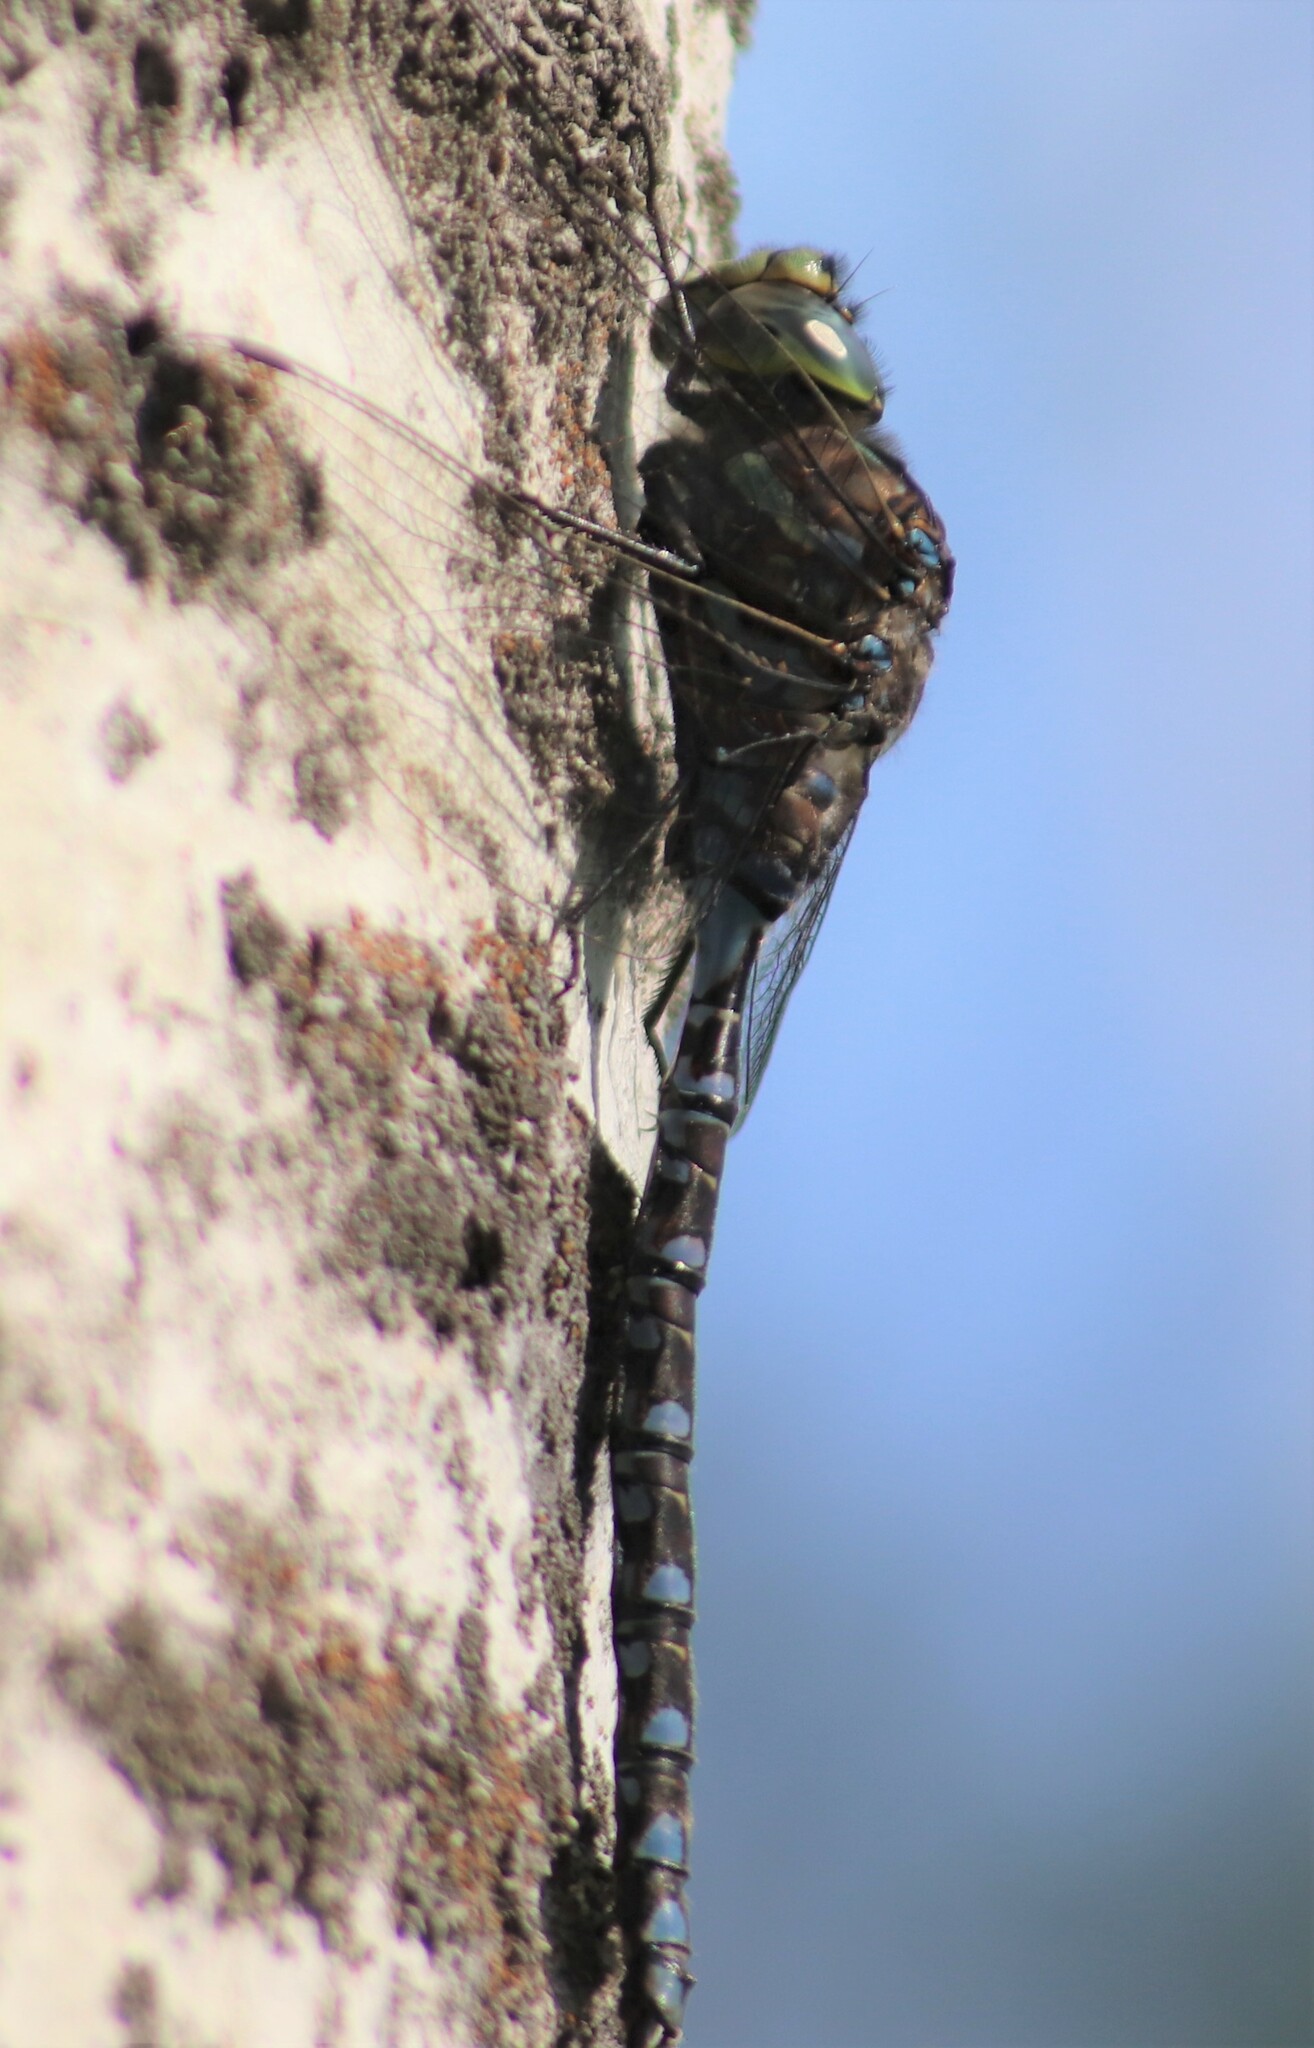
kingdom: Animalia
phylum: Arthropoda
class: Insecta
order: Odonata
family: Aeshnidae
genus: Aeshna
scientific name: Aeshna eremita
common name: Lake darner
